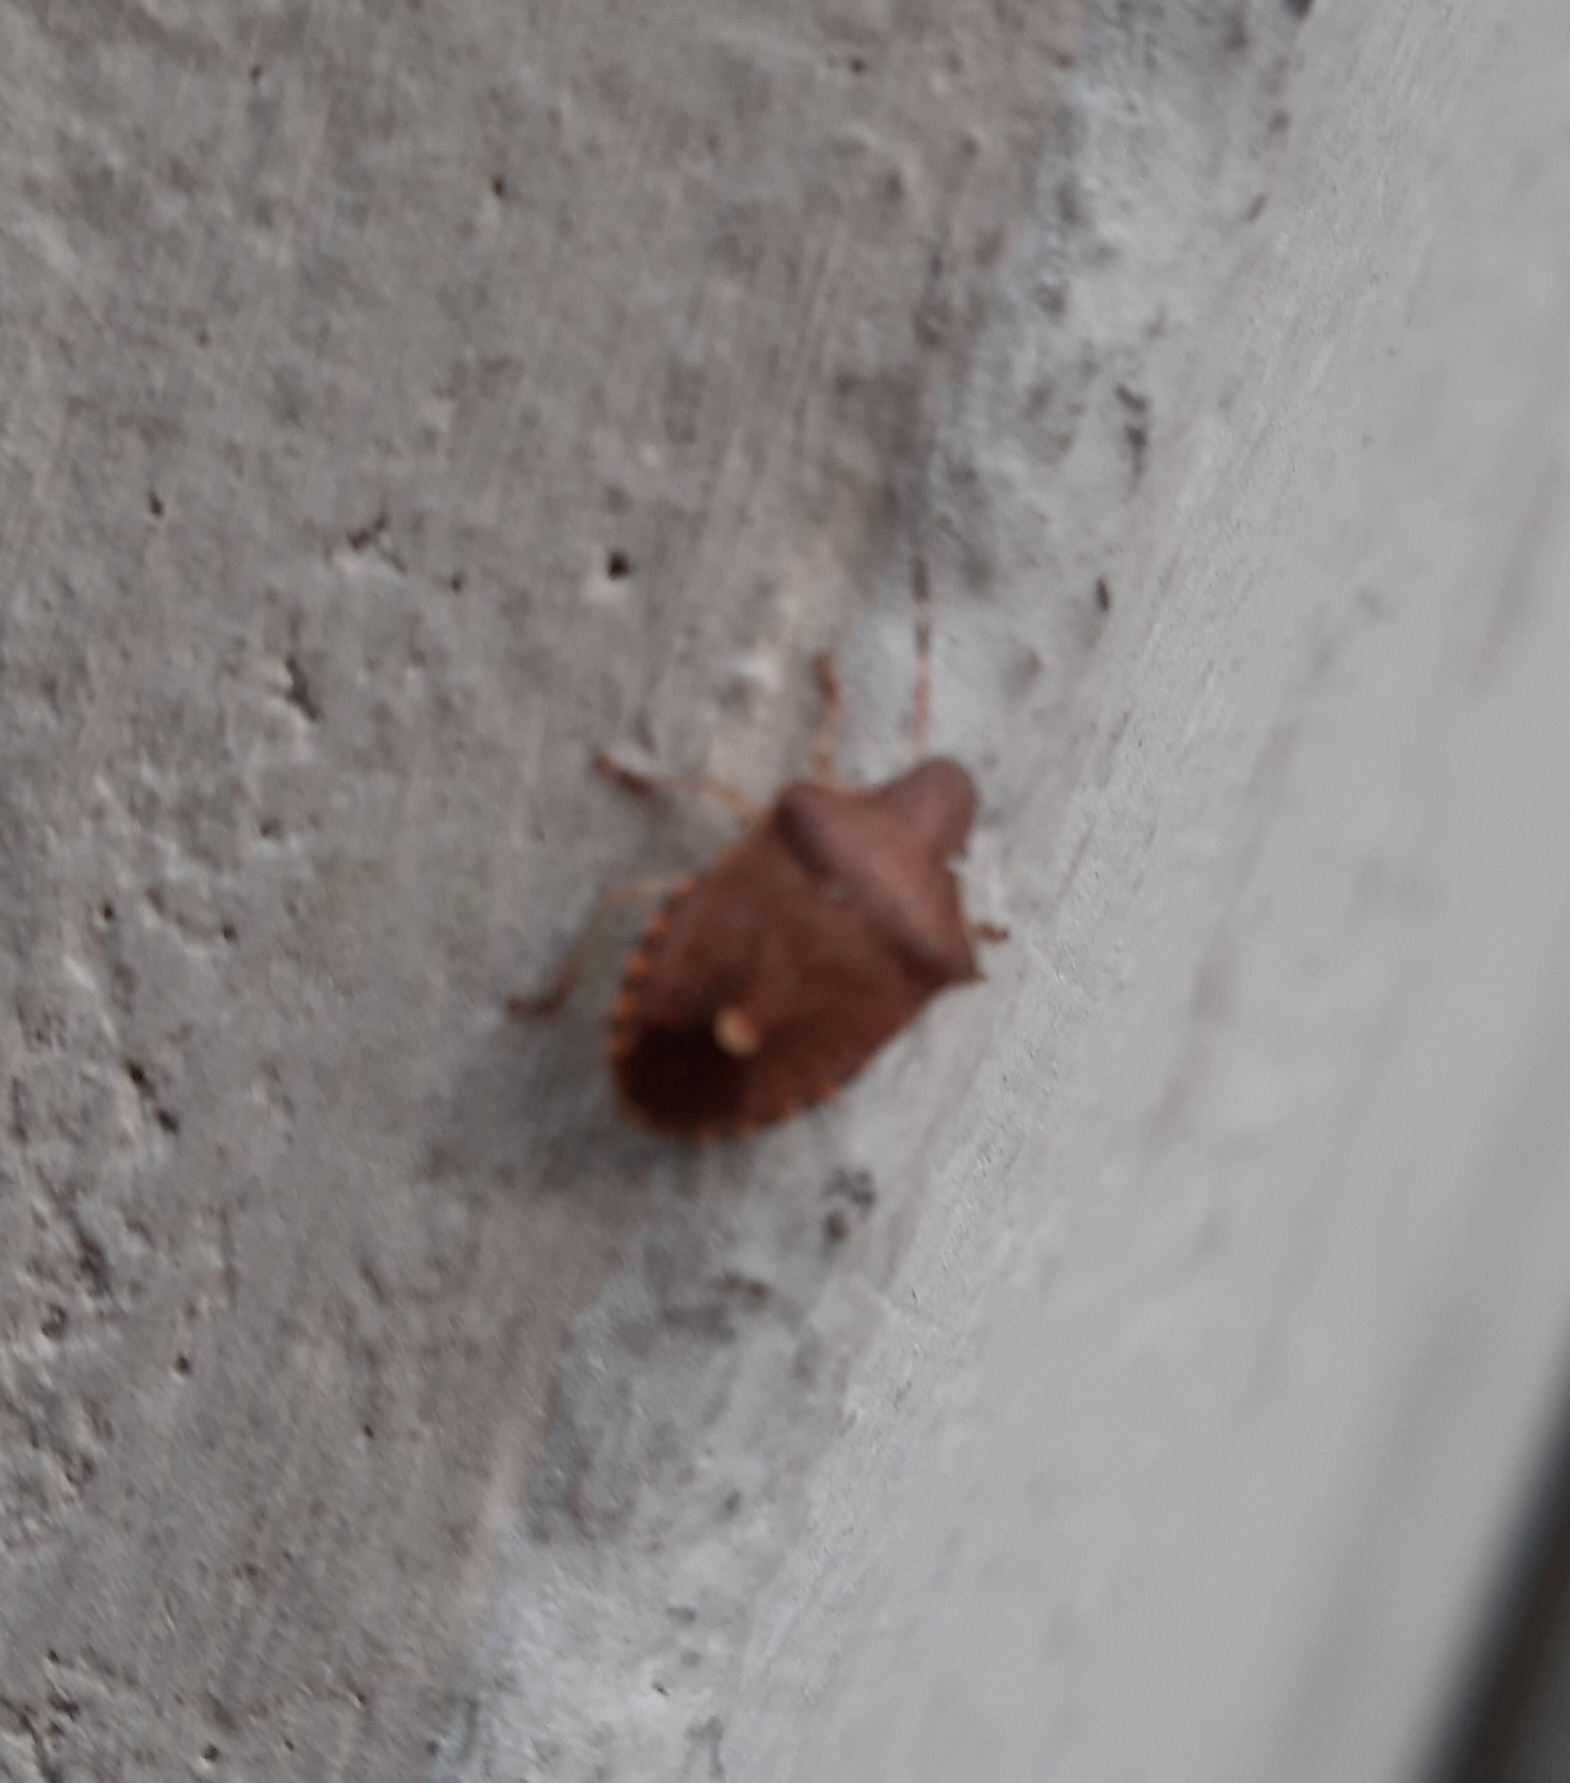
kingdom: Animalia
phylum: Arthropoda
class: Insecta
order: Hemiptera
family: Pentatomidae
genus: Holcostethus
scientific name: Holcostethus strictus
